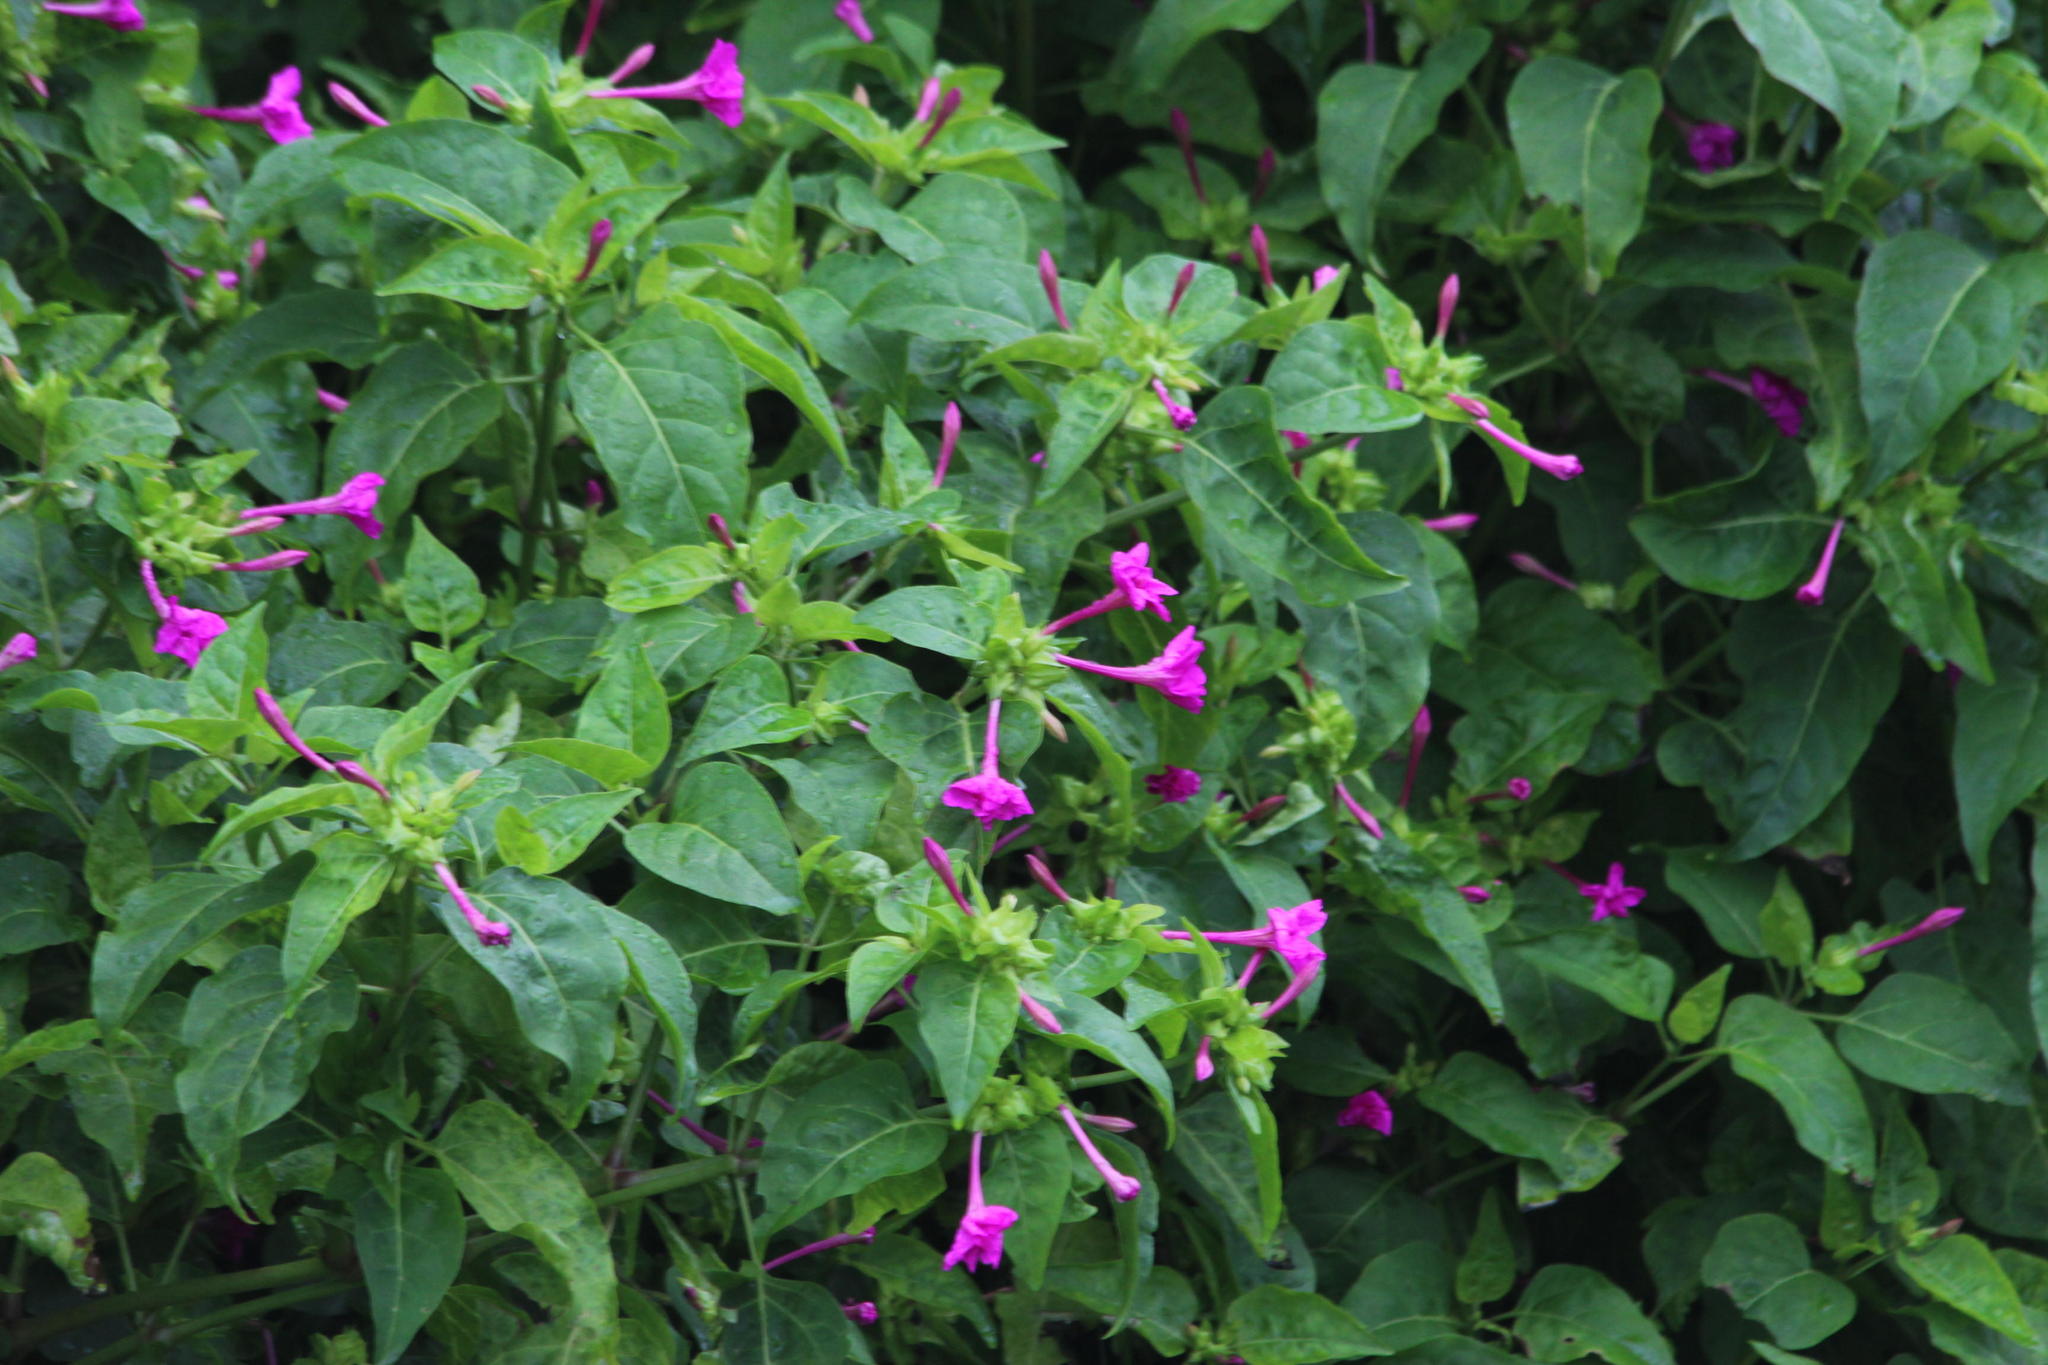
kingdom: Plantae
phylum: Tracheophyta
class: Magnoliopsida
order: Caryophyllales
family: Nyctaginaceae
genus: Mirabilis
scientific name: Mirabilis jalapa
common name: Marvel-of-peru
